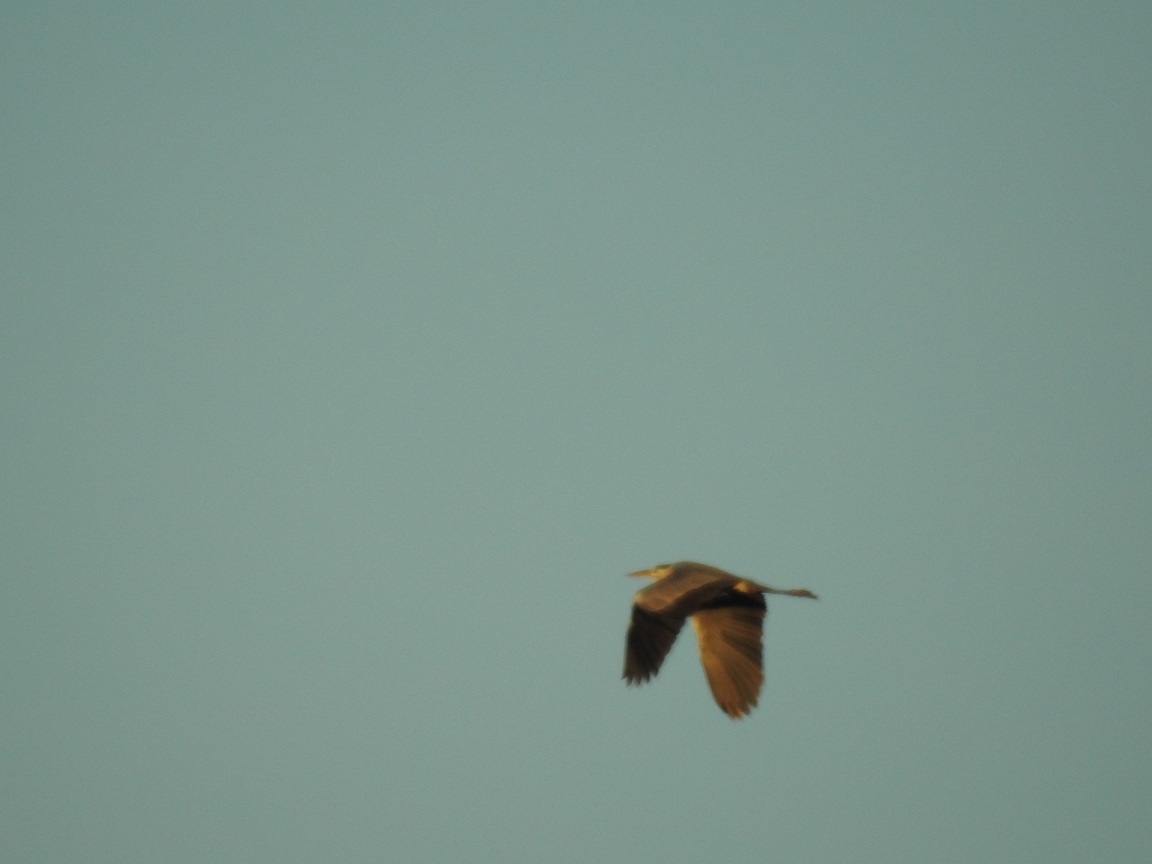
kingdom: Animalia
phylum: Chordata
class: Aves
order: Pelecaniformes
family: Ardeidae
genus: Ardea
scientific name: Ardea cinerea
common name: Grey heron
